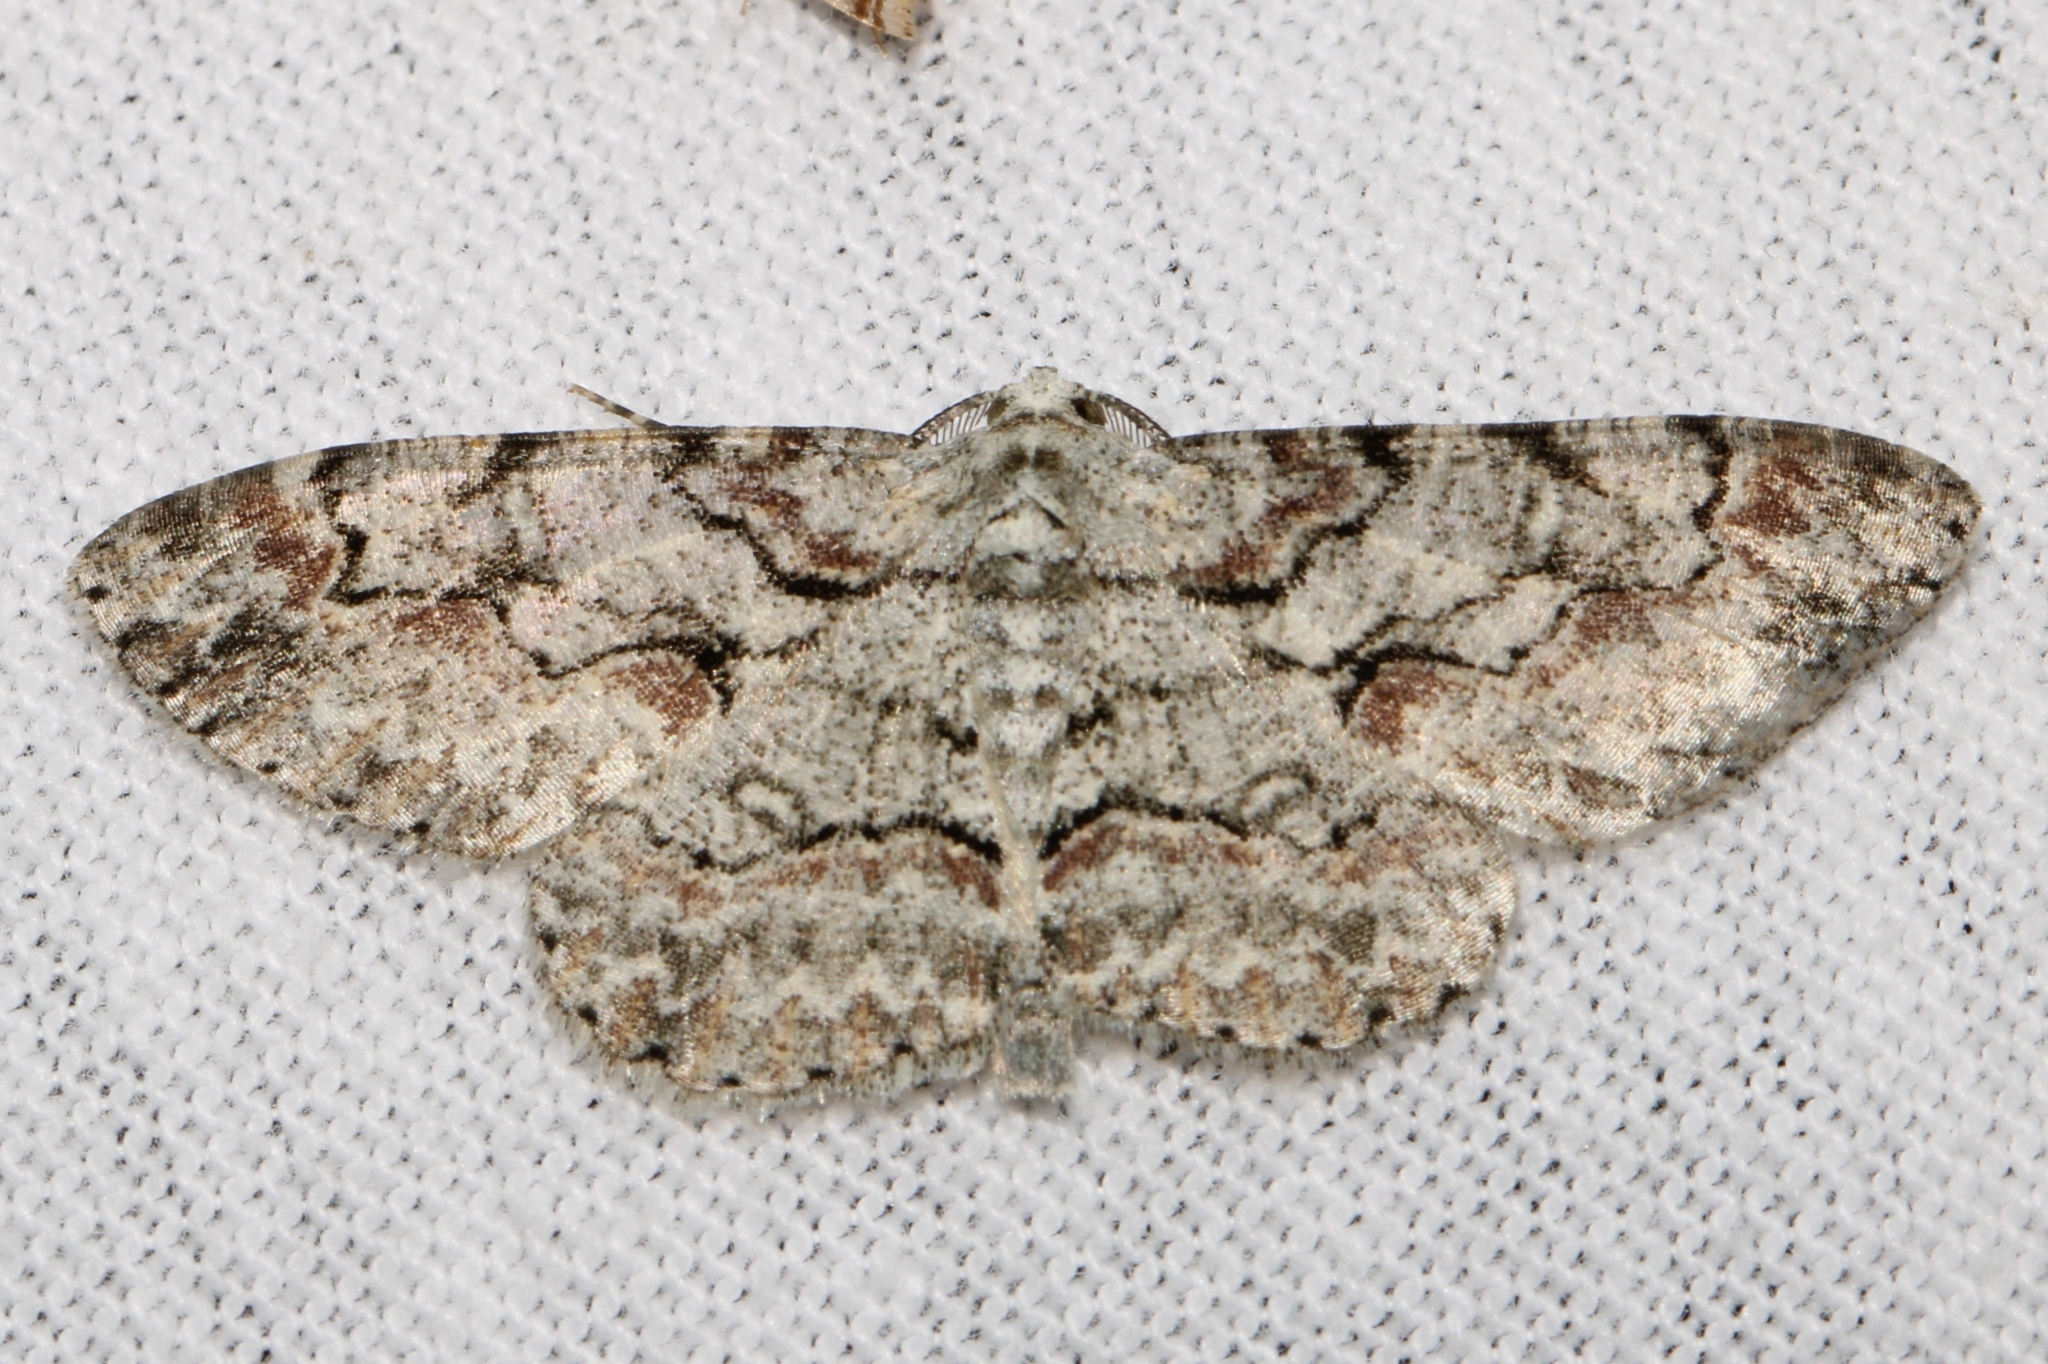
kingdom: Animalia
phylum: Arthropoda
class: Insecta
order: Lepidoptera
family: Geometridae
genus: Iridopsis
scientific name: Iridopsis defectaria
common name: Brown-shaded gray
